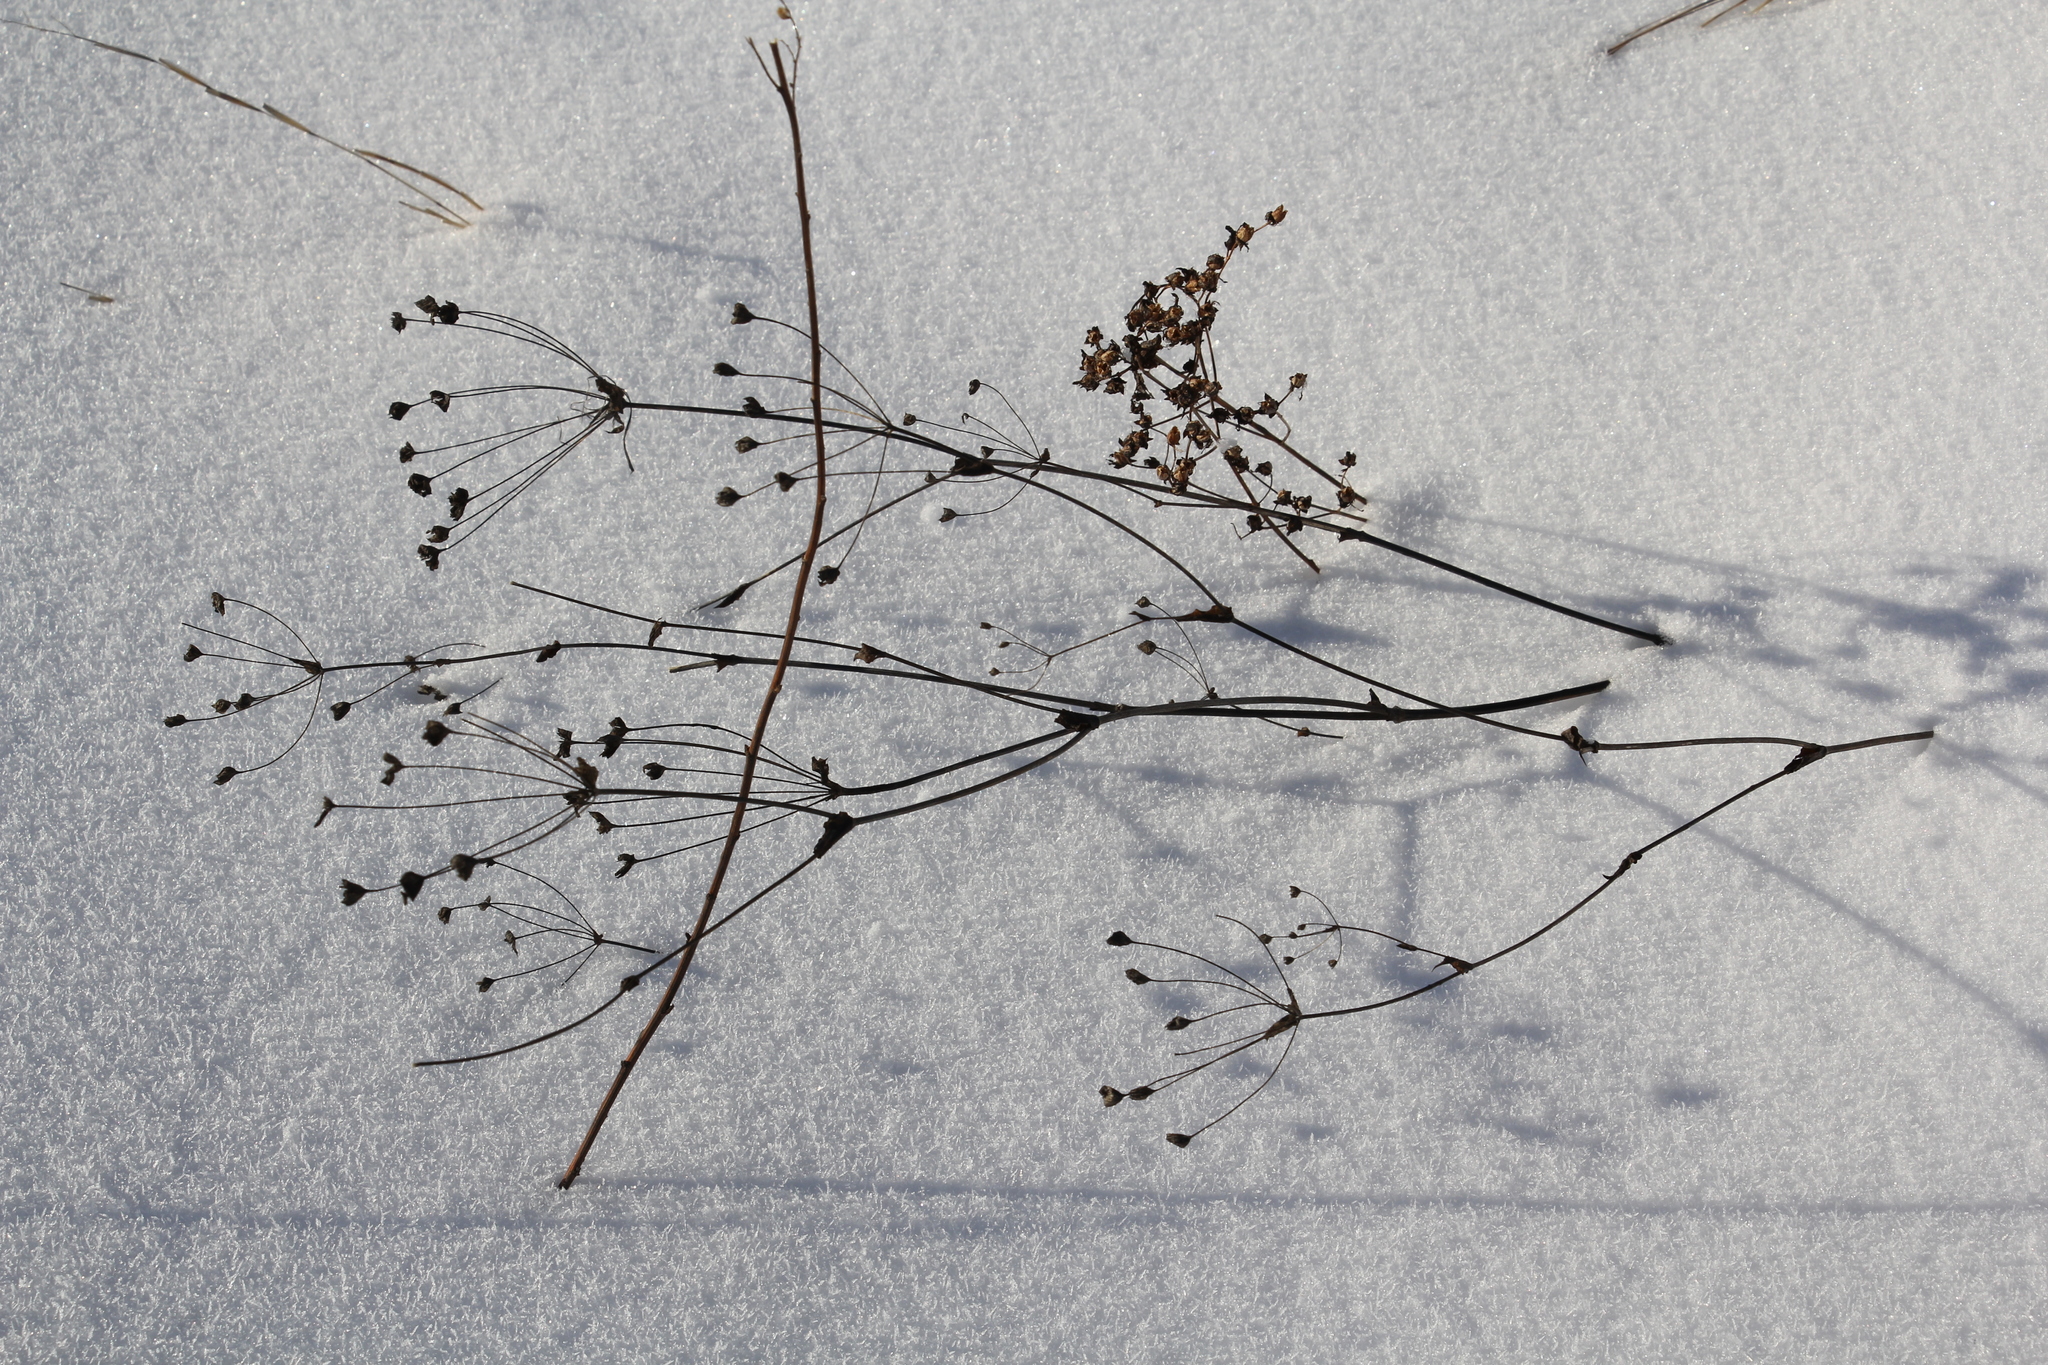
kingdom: Plantae
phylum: Tracheophyta
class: Magnoliopsida
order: Apiales
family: Apiaceae
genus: Bupleurum
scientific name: Bupleurum multinerve
